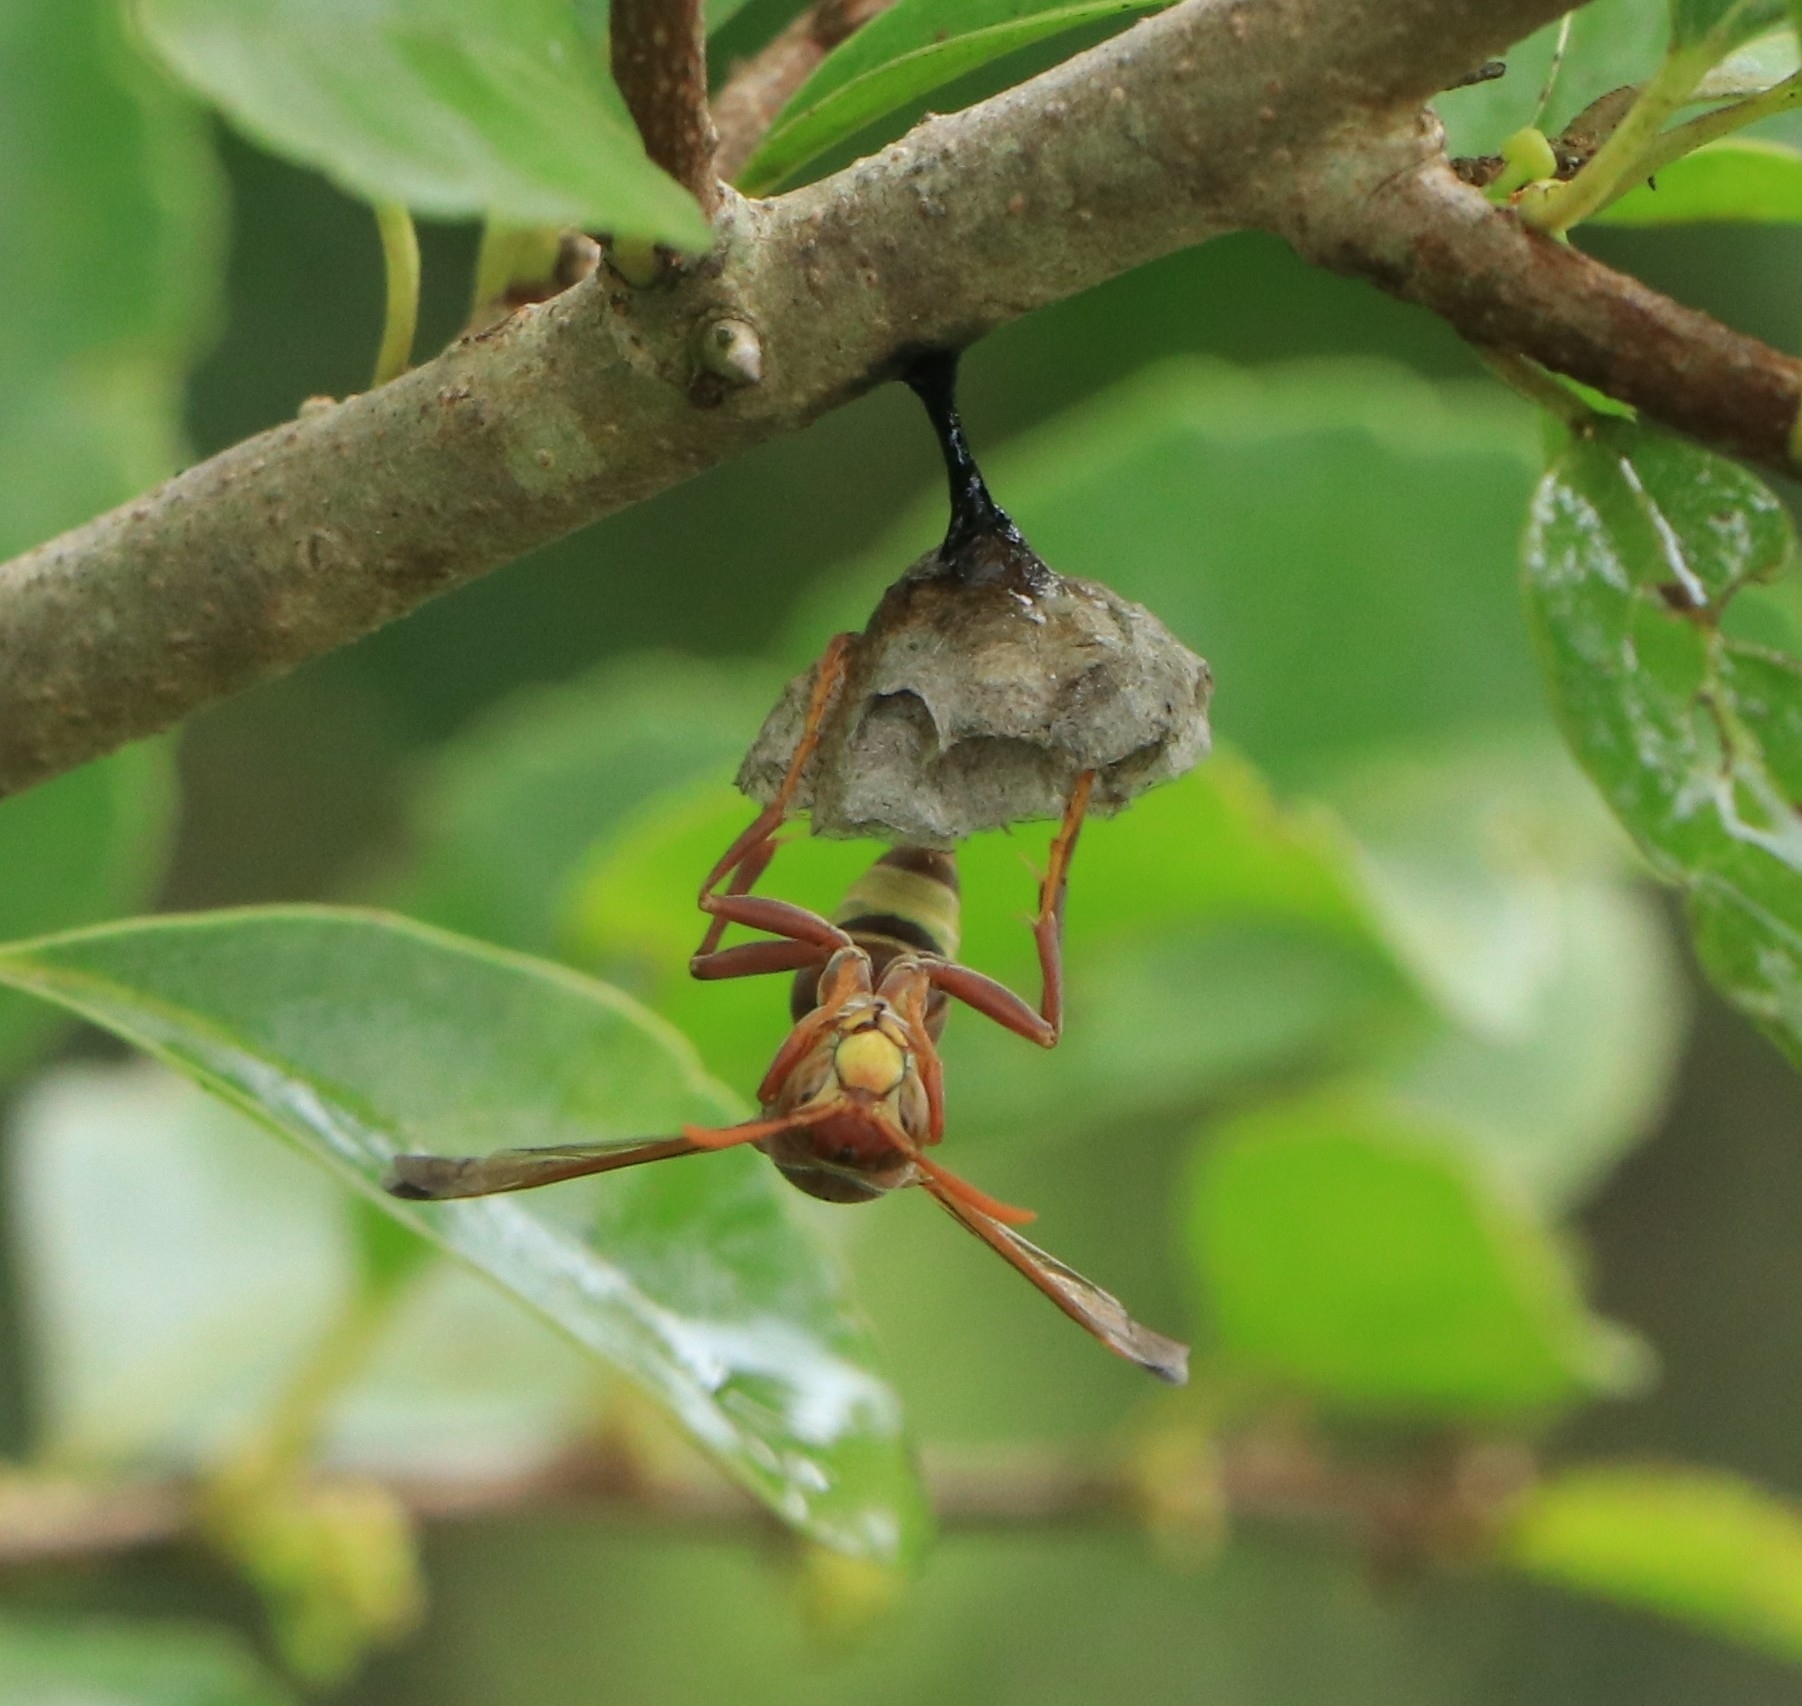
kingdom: Animalia
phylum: Arthropoda
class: Insecta
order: Hymenoptera
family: Eumenidae
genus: Polistes
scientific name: Polistes stigma
